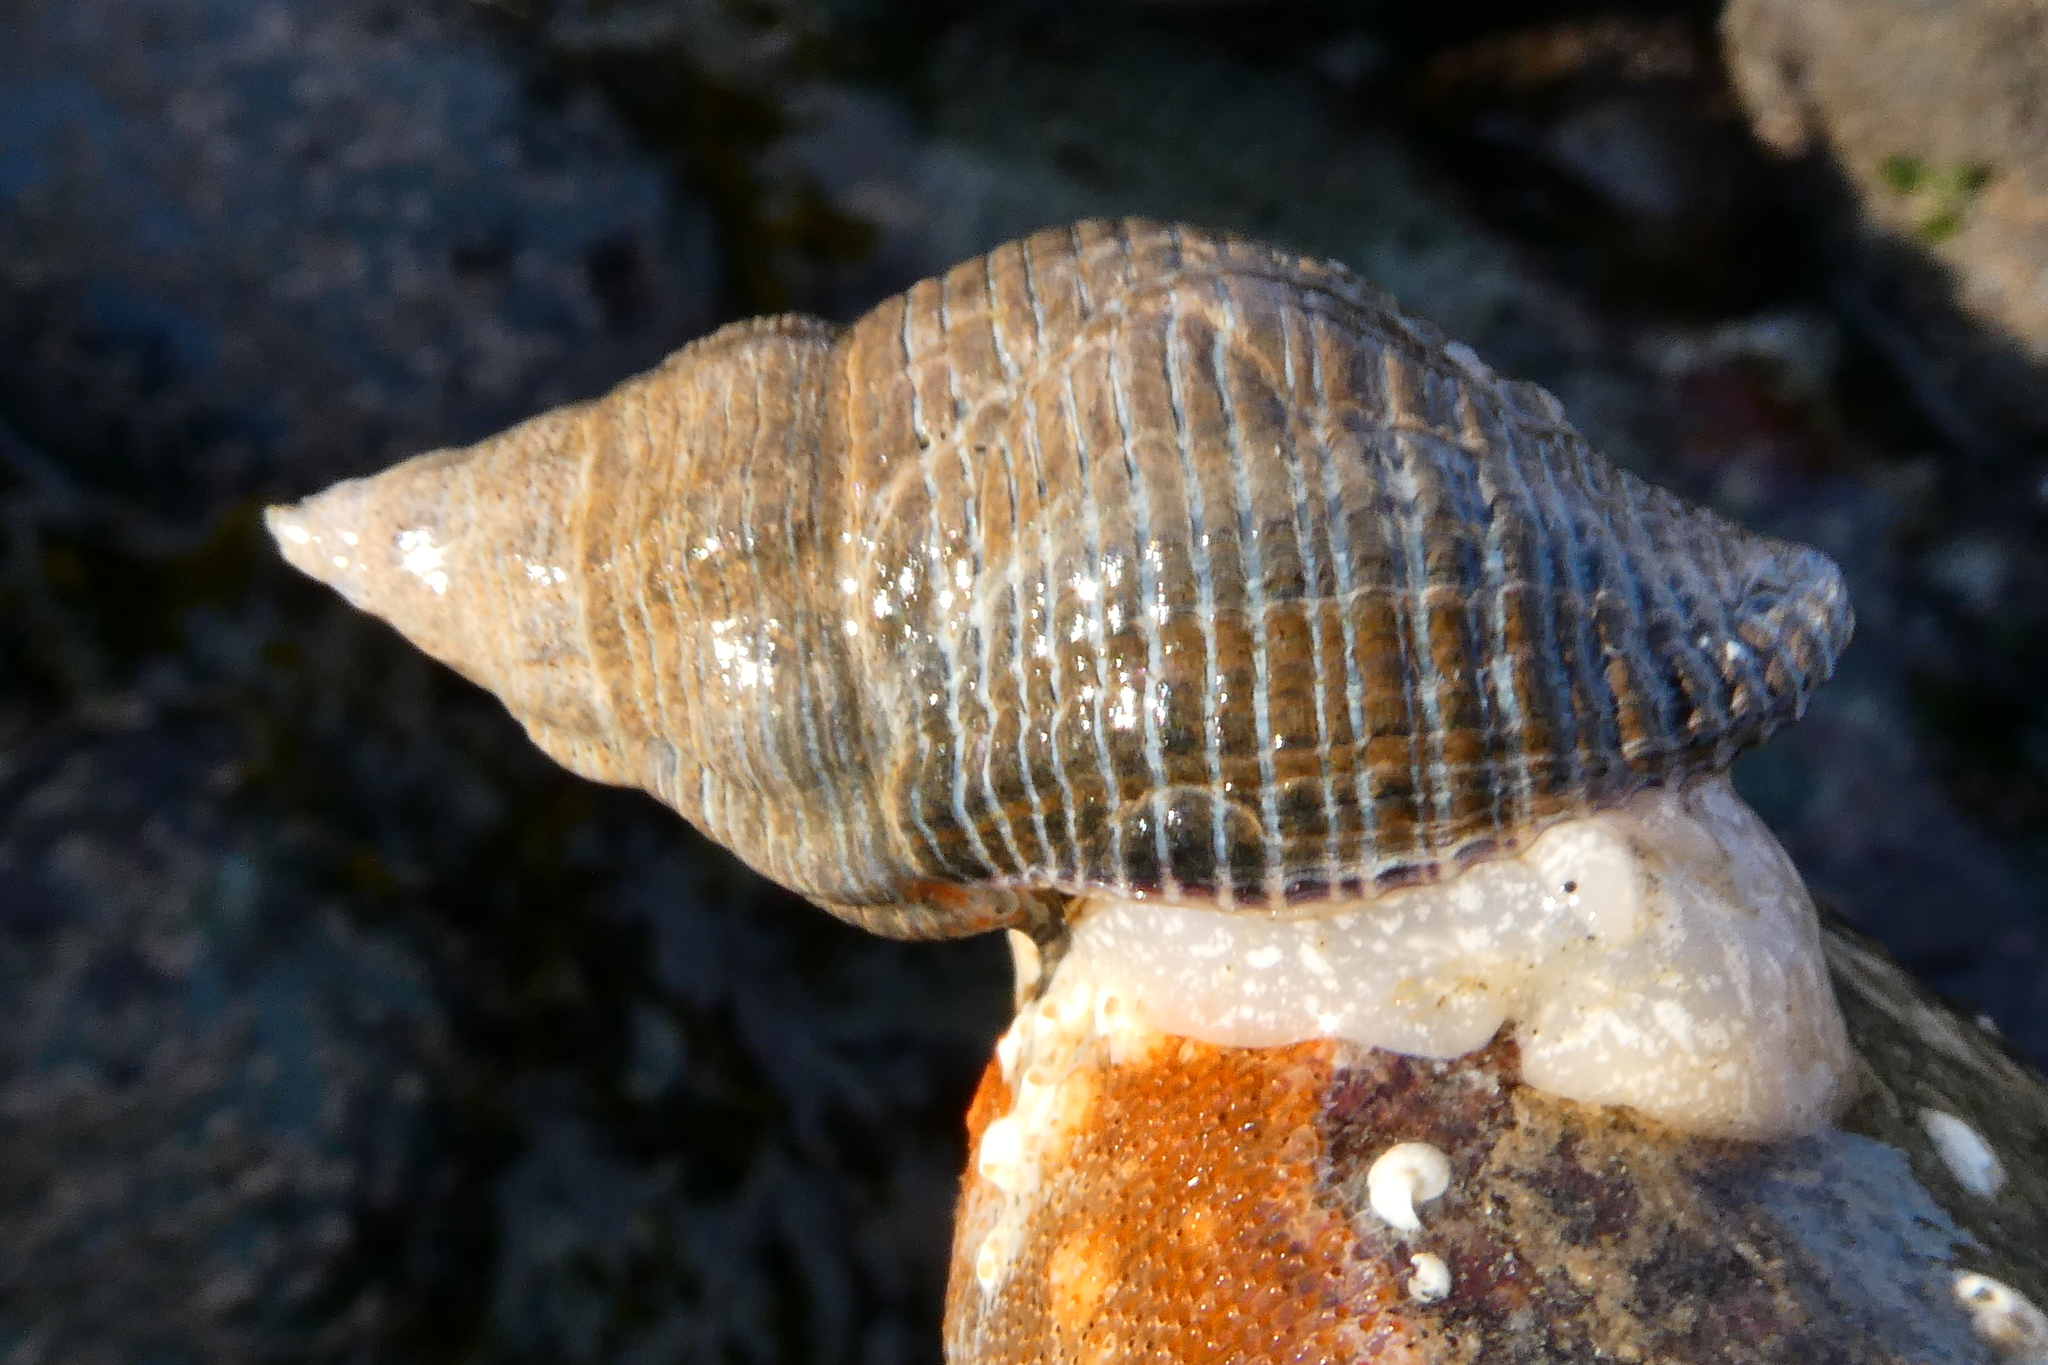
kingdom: Animalia
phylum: Mollusca
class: Gastropoda
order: Neogastropoda
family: Tudiclidae
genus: Lirabuccinum
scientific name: Lirabuccinum dirum
